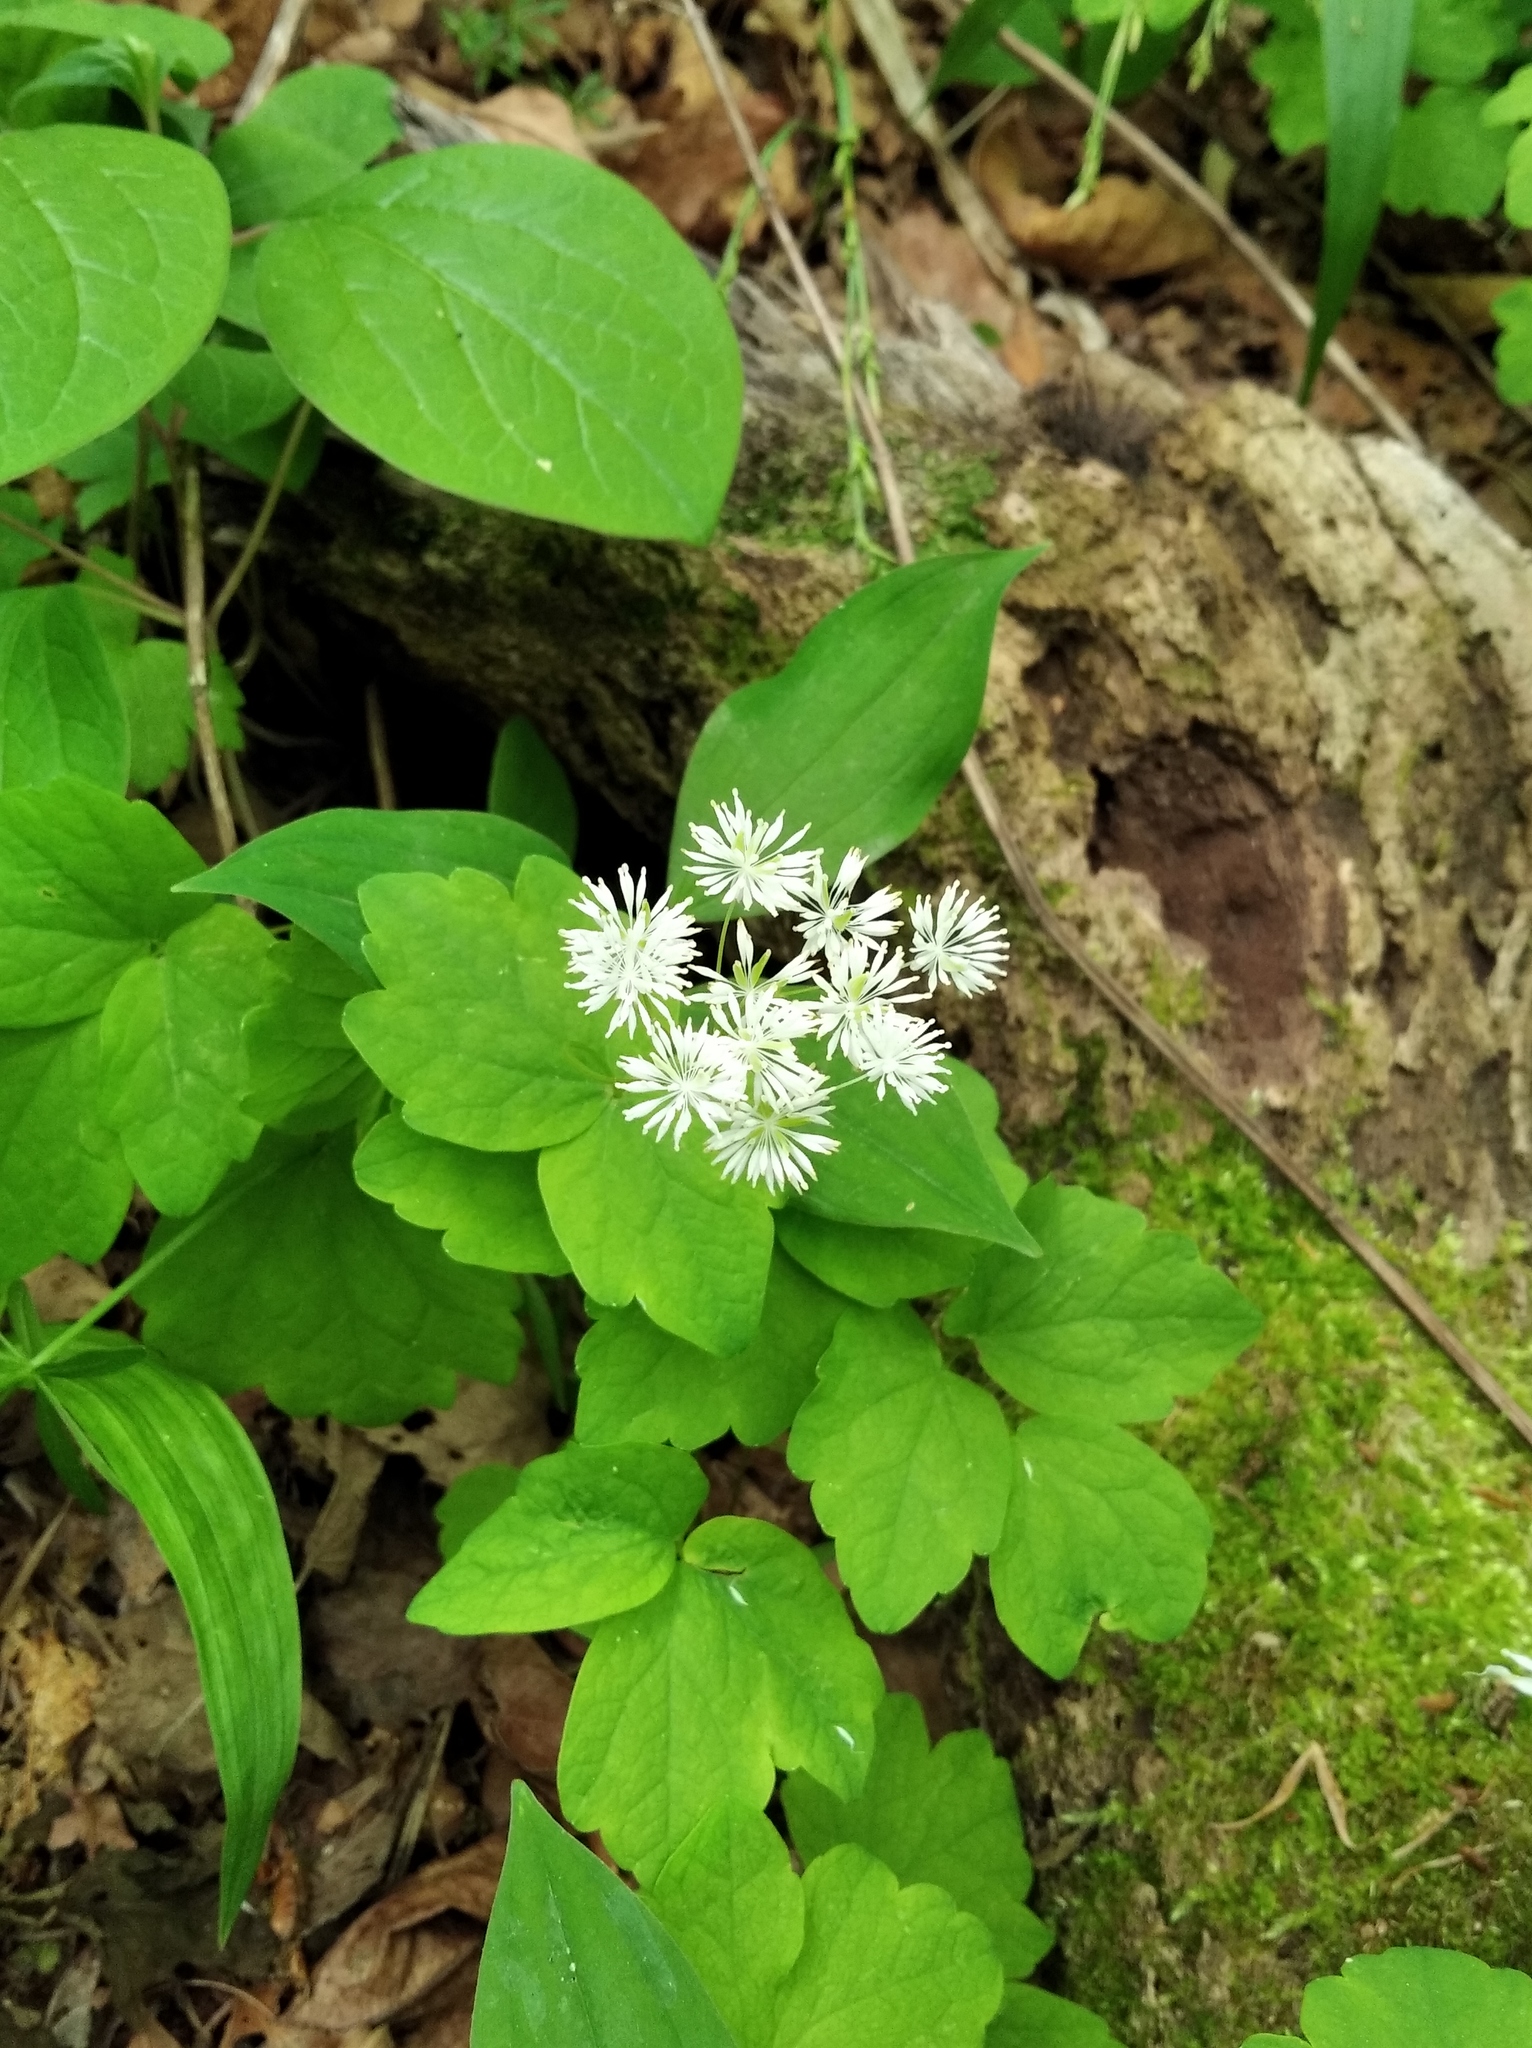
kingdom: Plantae
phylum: Tracheophyta
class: Magnoliopsida
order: Ranunculales
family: Ranunculaceae
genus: Thalictrum
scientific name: Thalictrum filamentosum
